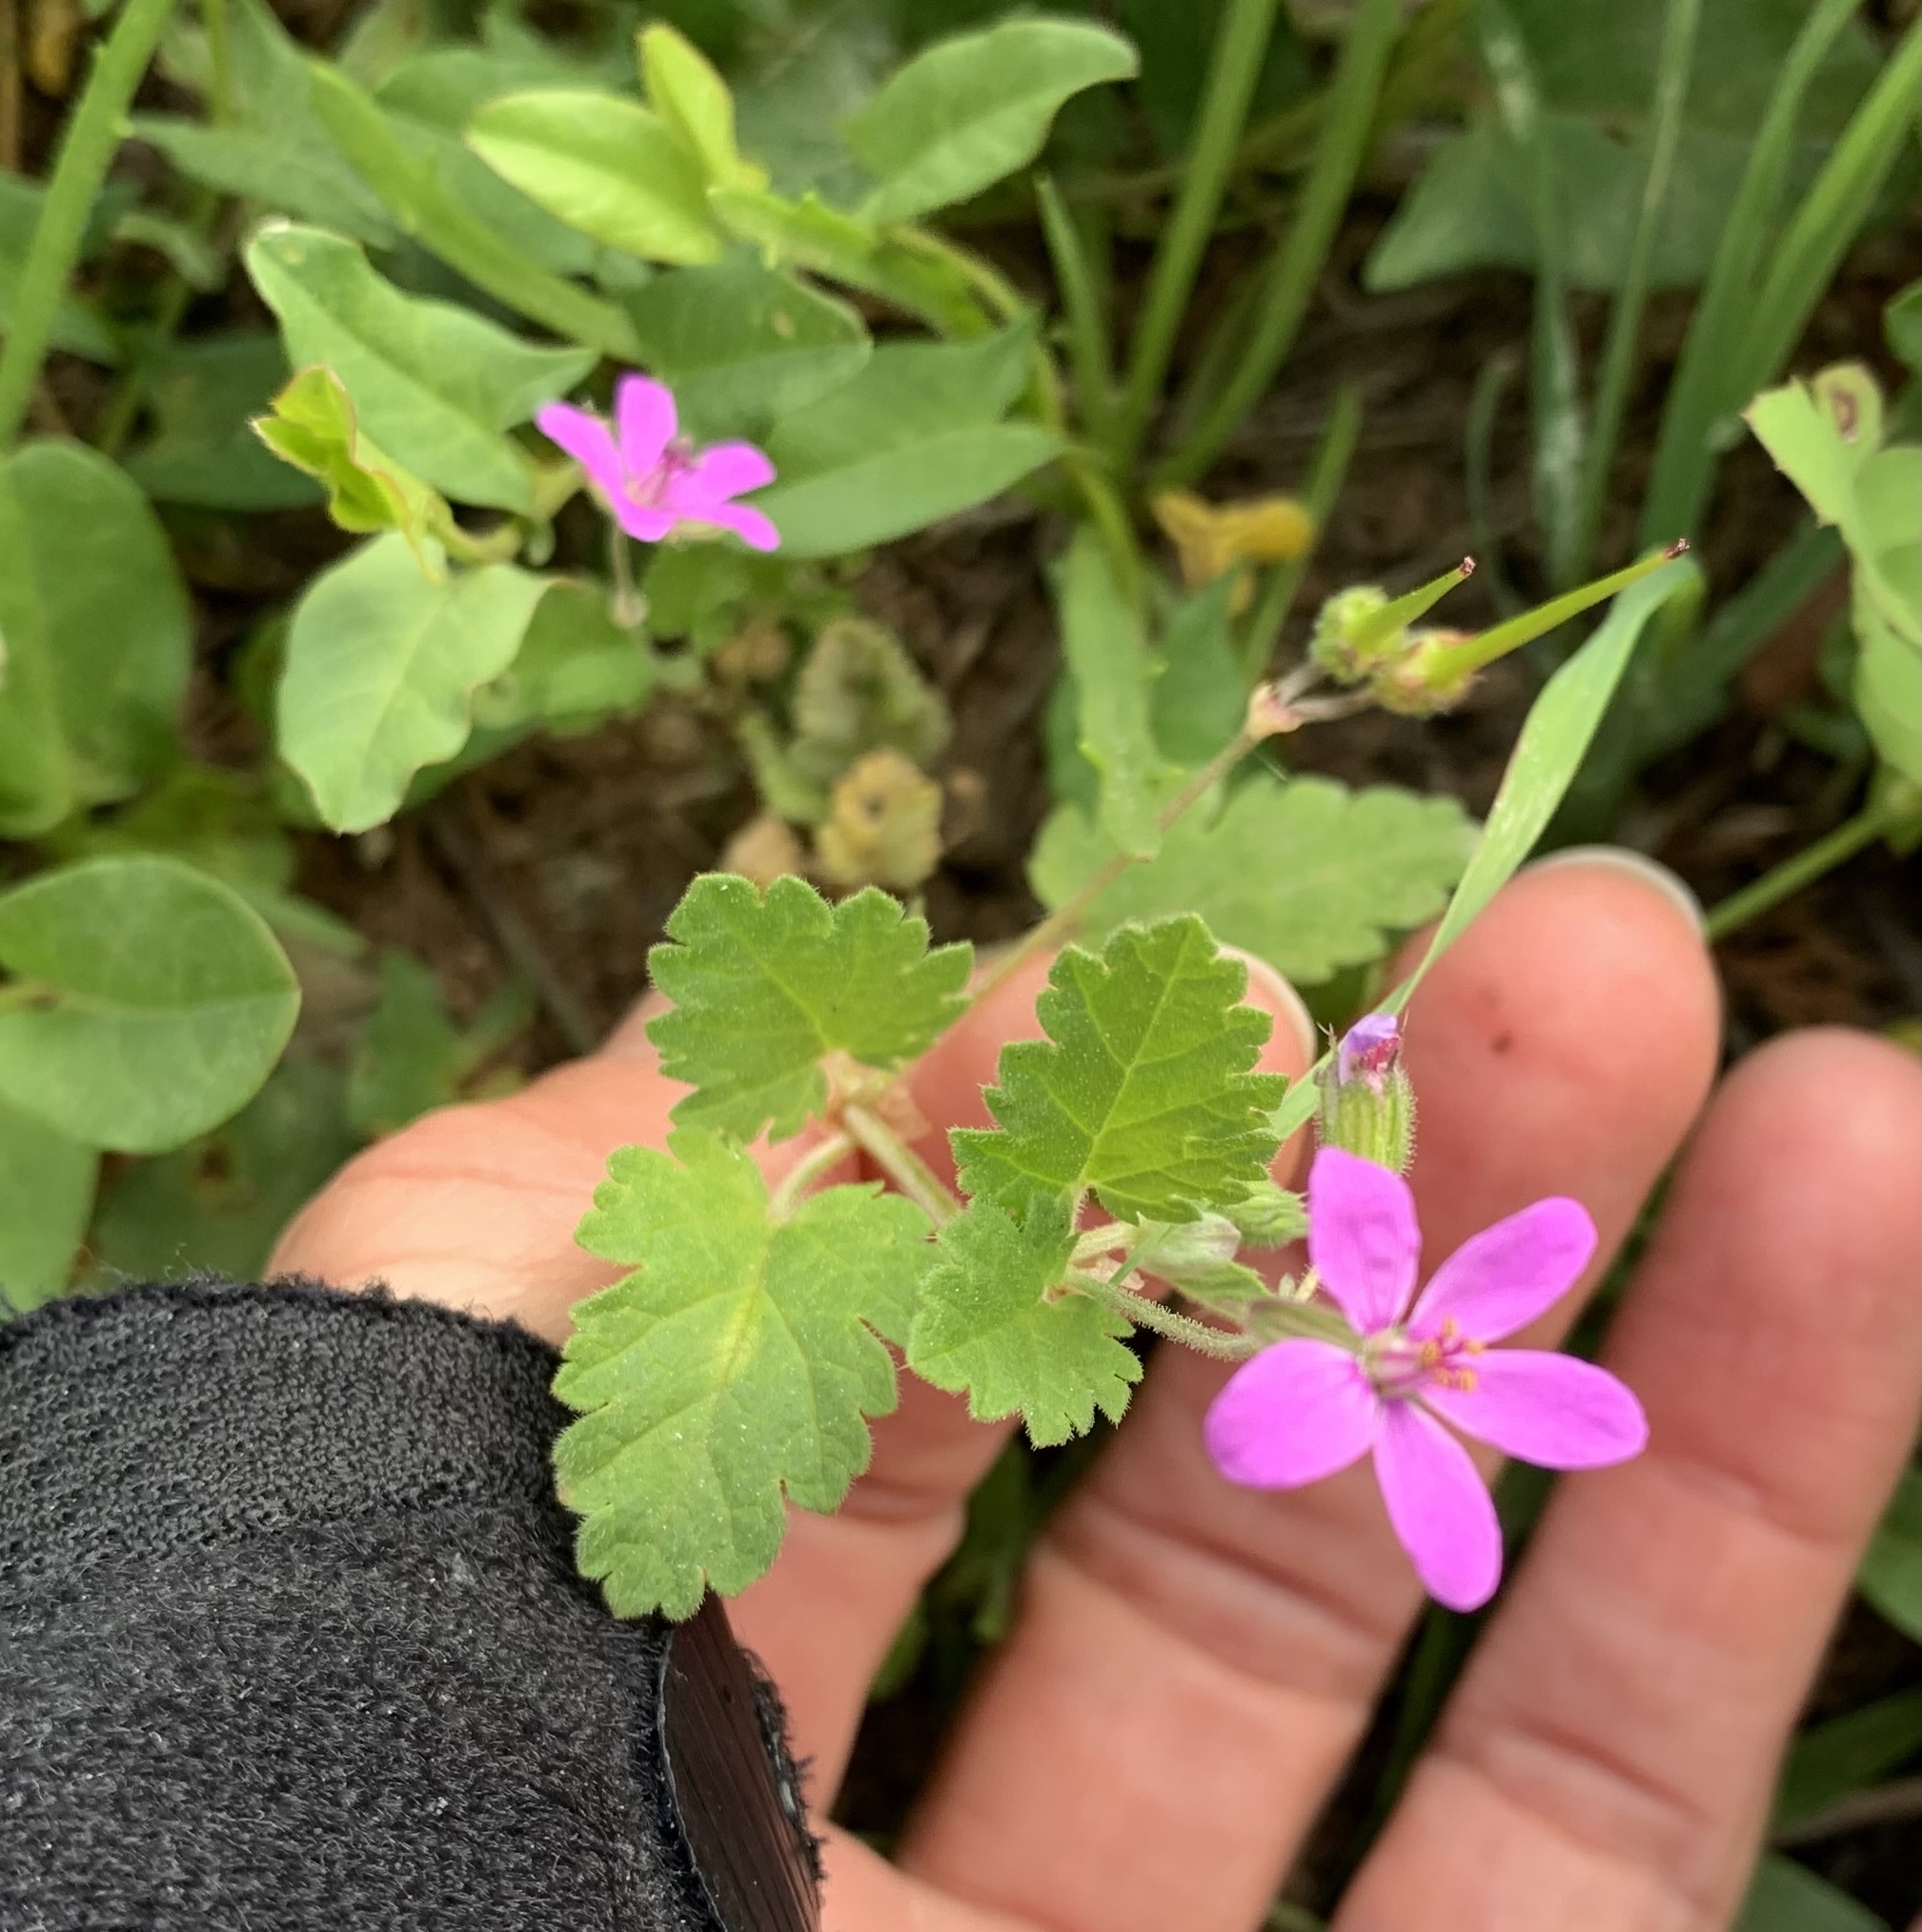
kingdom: Plantae
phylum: Tracheophyta
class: Magnoliopsida
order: Geraniales
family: Geraniaceae
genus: Erodium
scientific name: Erodium malacoides
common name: Soft stork's-bill
